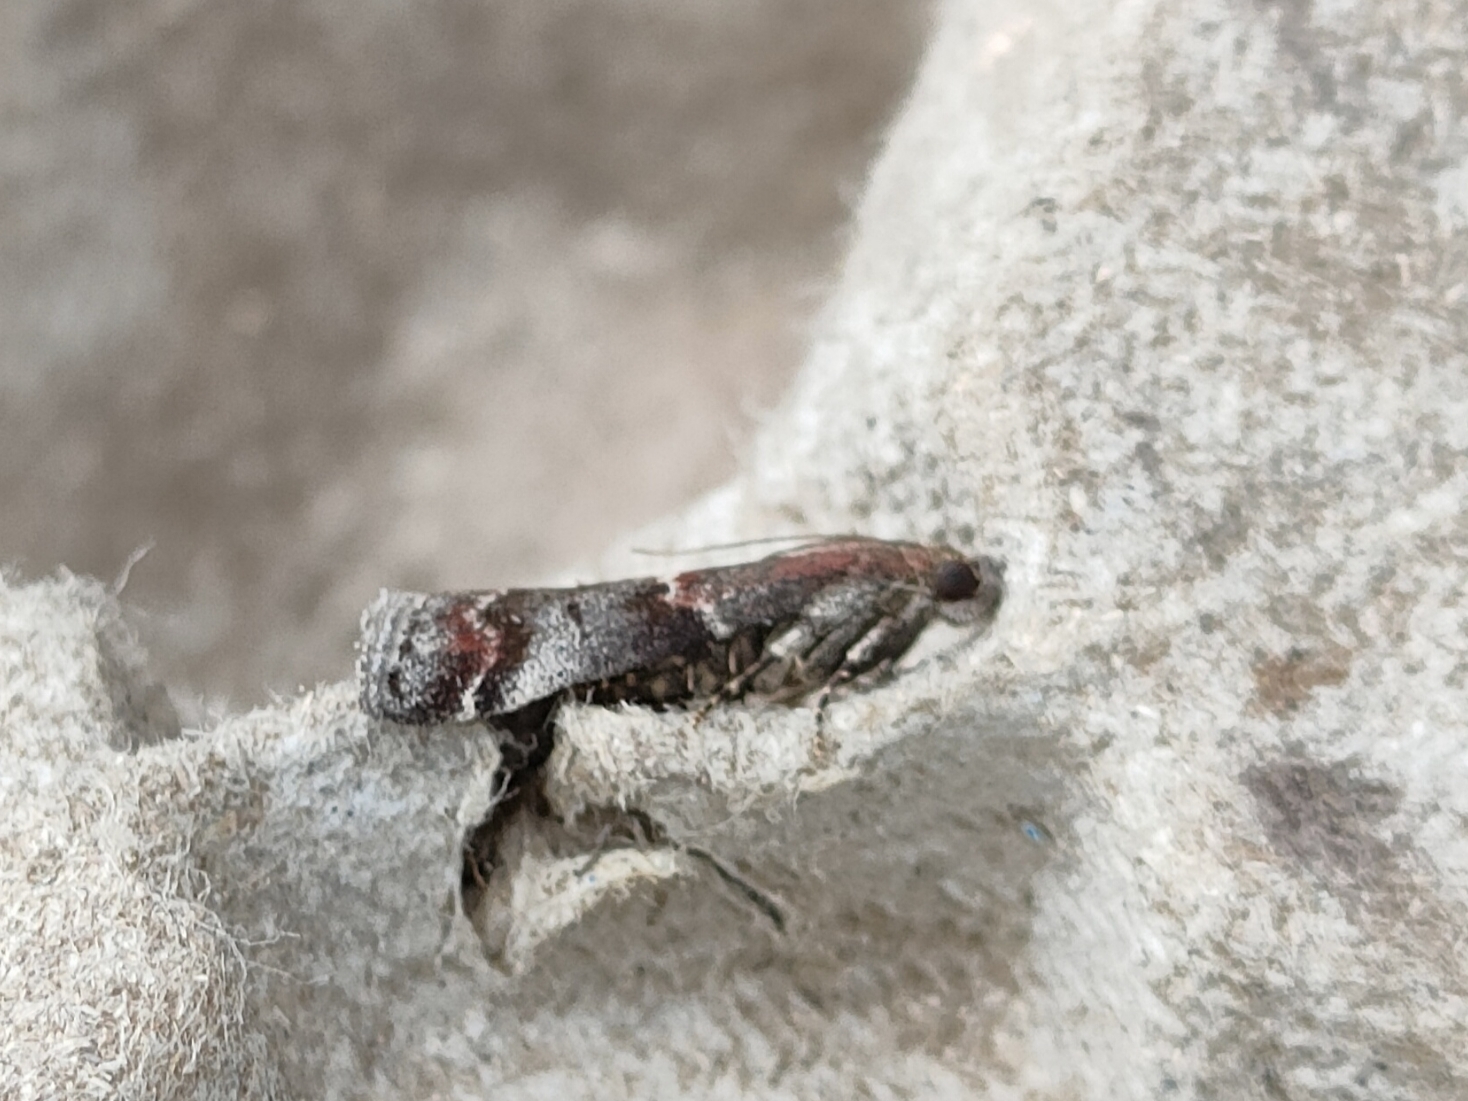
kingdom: Animalia
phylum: Arthropoda
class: Insecta
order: Lepidoptera
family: Pyralidae
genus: Acrobasis
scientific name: Acrobasis suavella
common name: Pyralid moth
